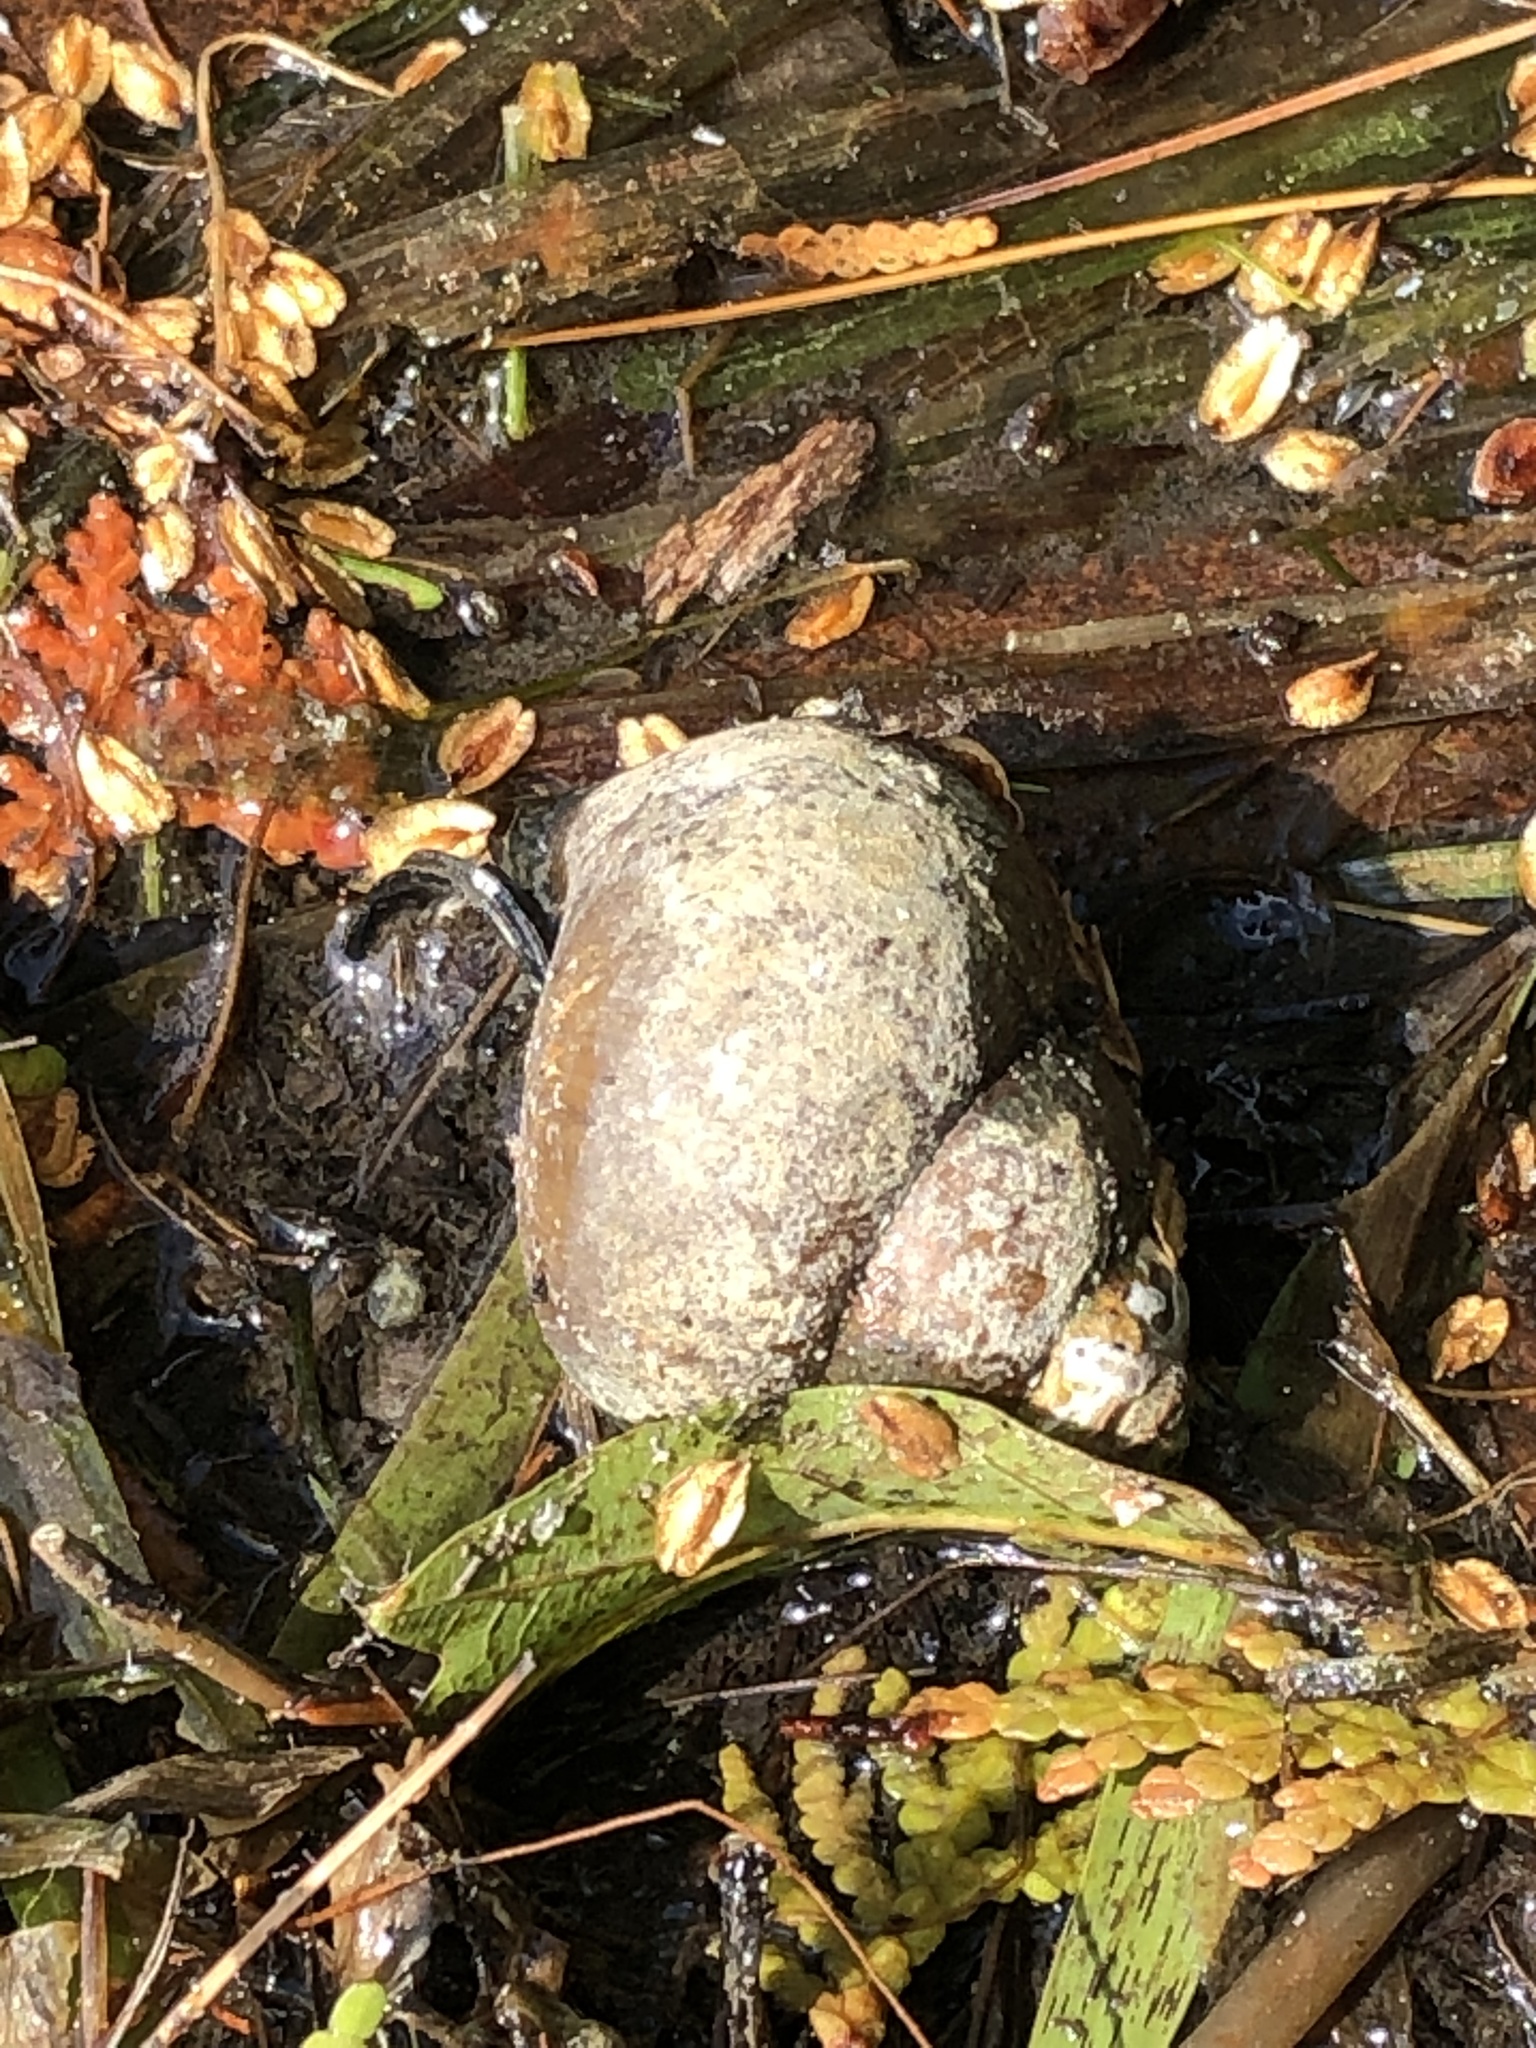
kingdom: Animalia
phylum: Mollusca
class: Gastropoda
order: Architaenioglossa
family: Viviparidae
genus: Cipangopaludina
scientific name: Cipangopaludina chinensis
